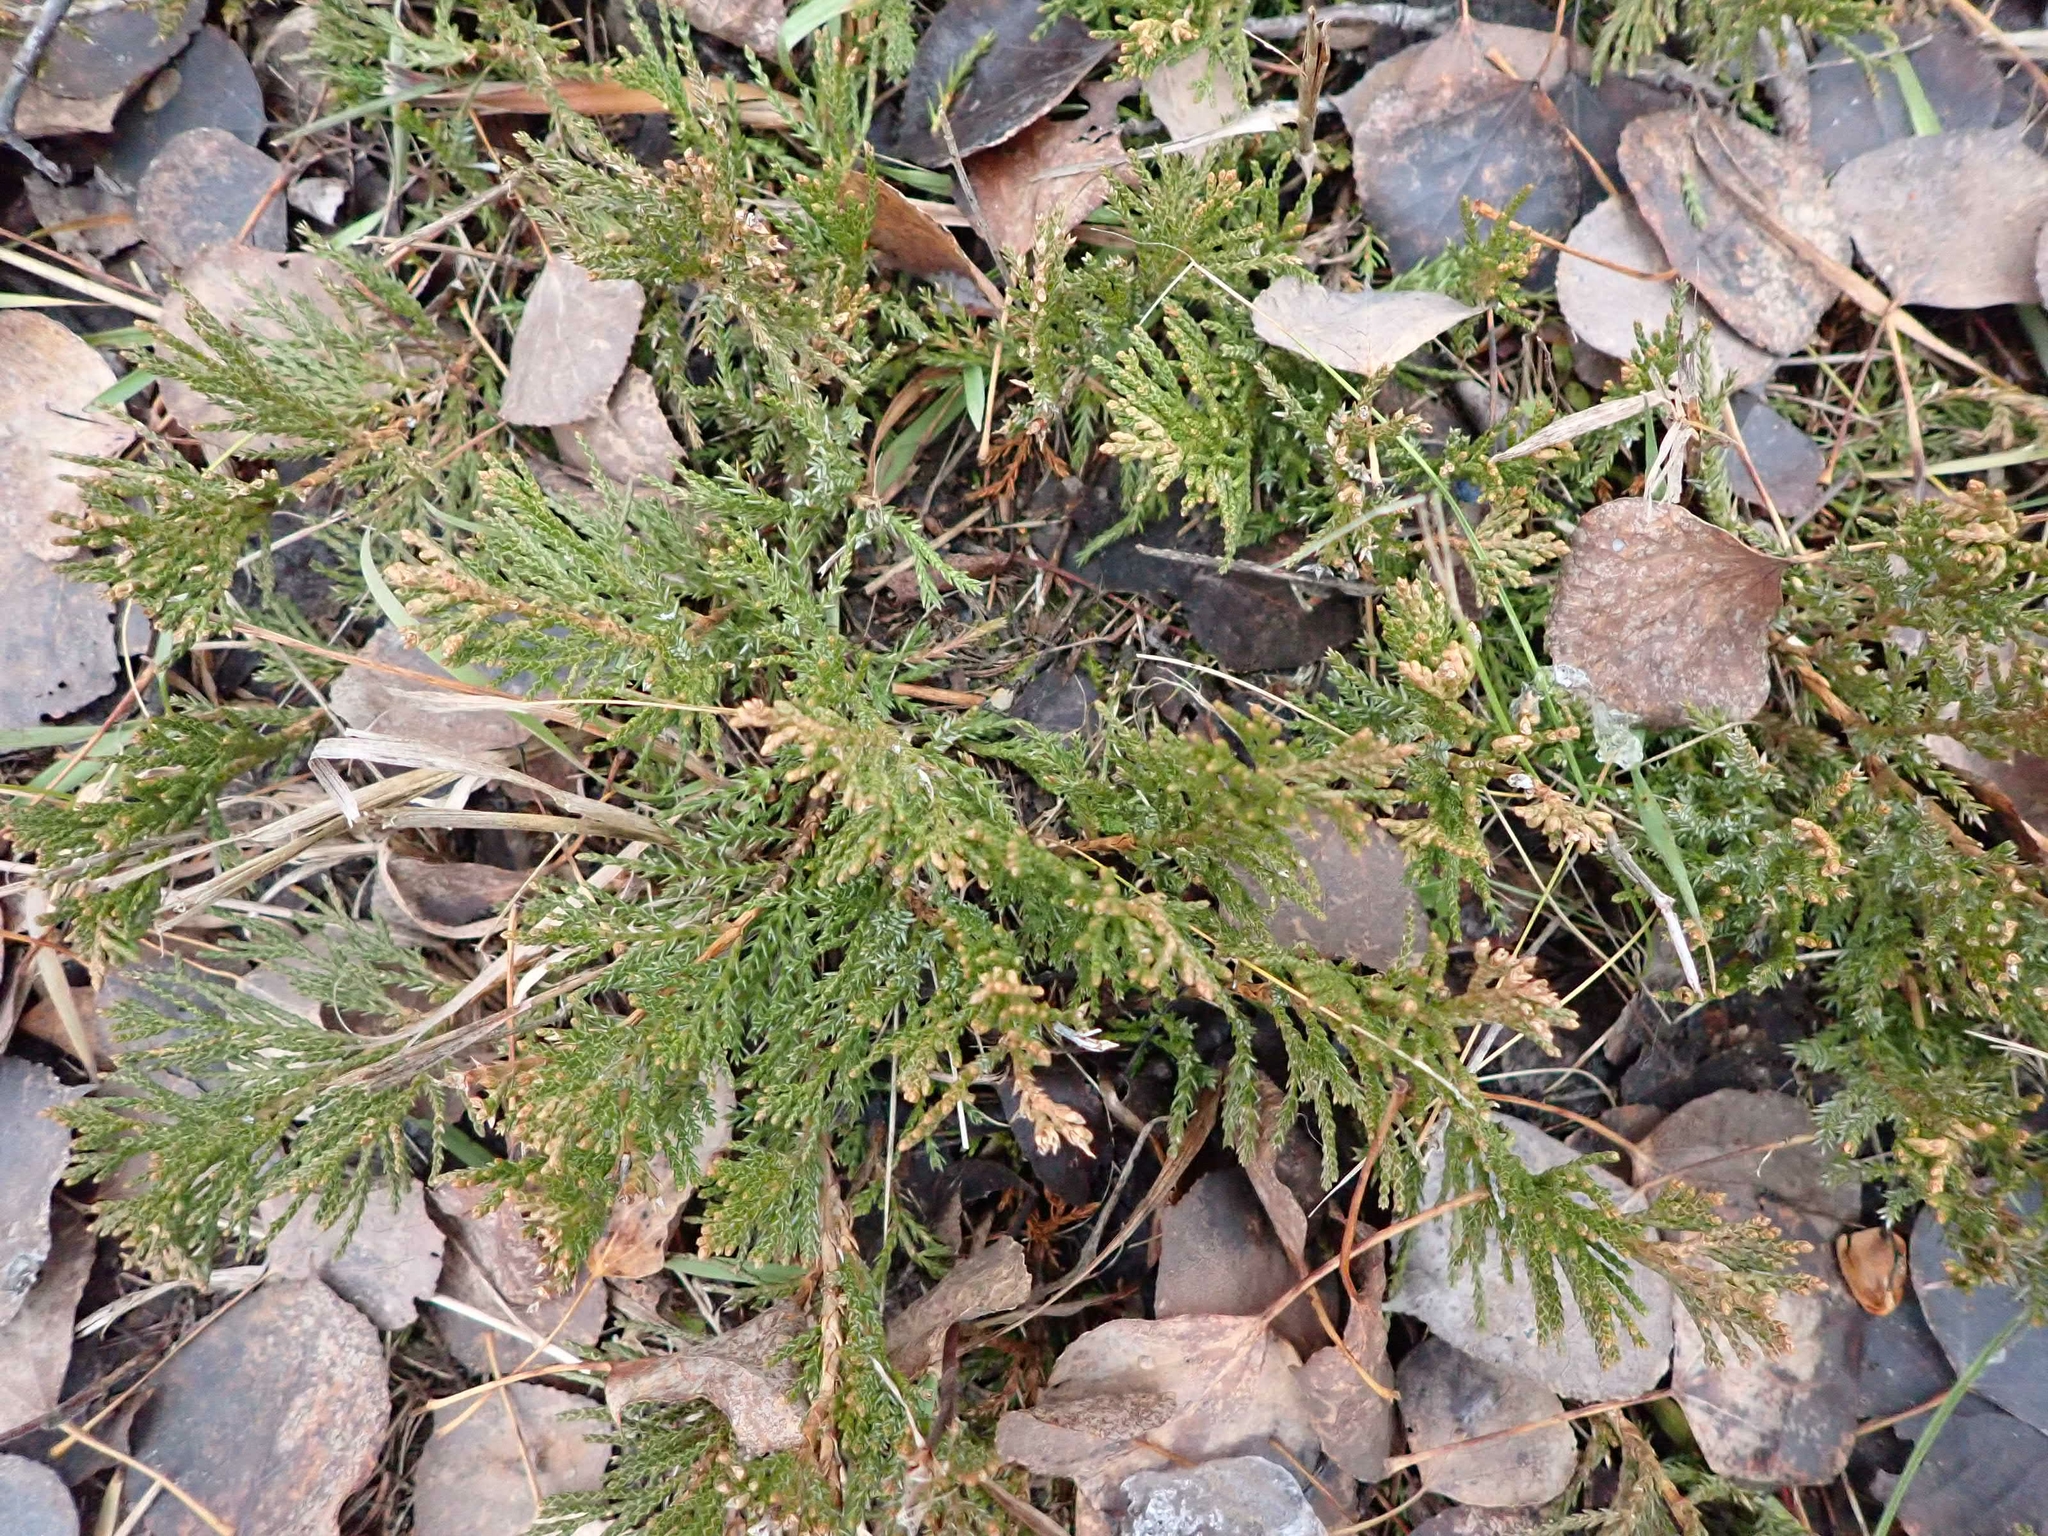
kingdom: Plantae
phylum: Tracheophyta
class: Pinopsida
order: Pinales
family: Cupressaceae
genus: Juniperus
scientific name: Juniperus horizontalis
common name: Creeping juniper
